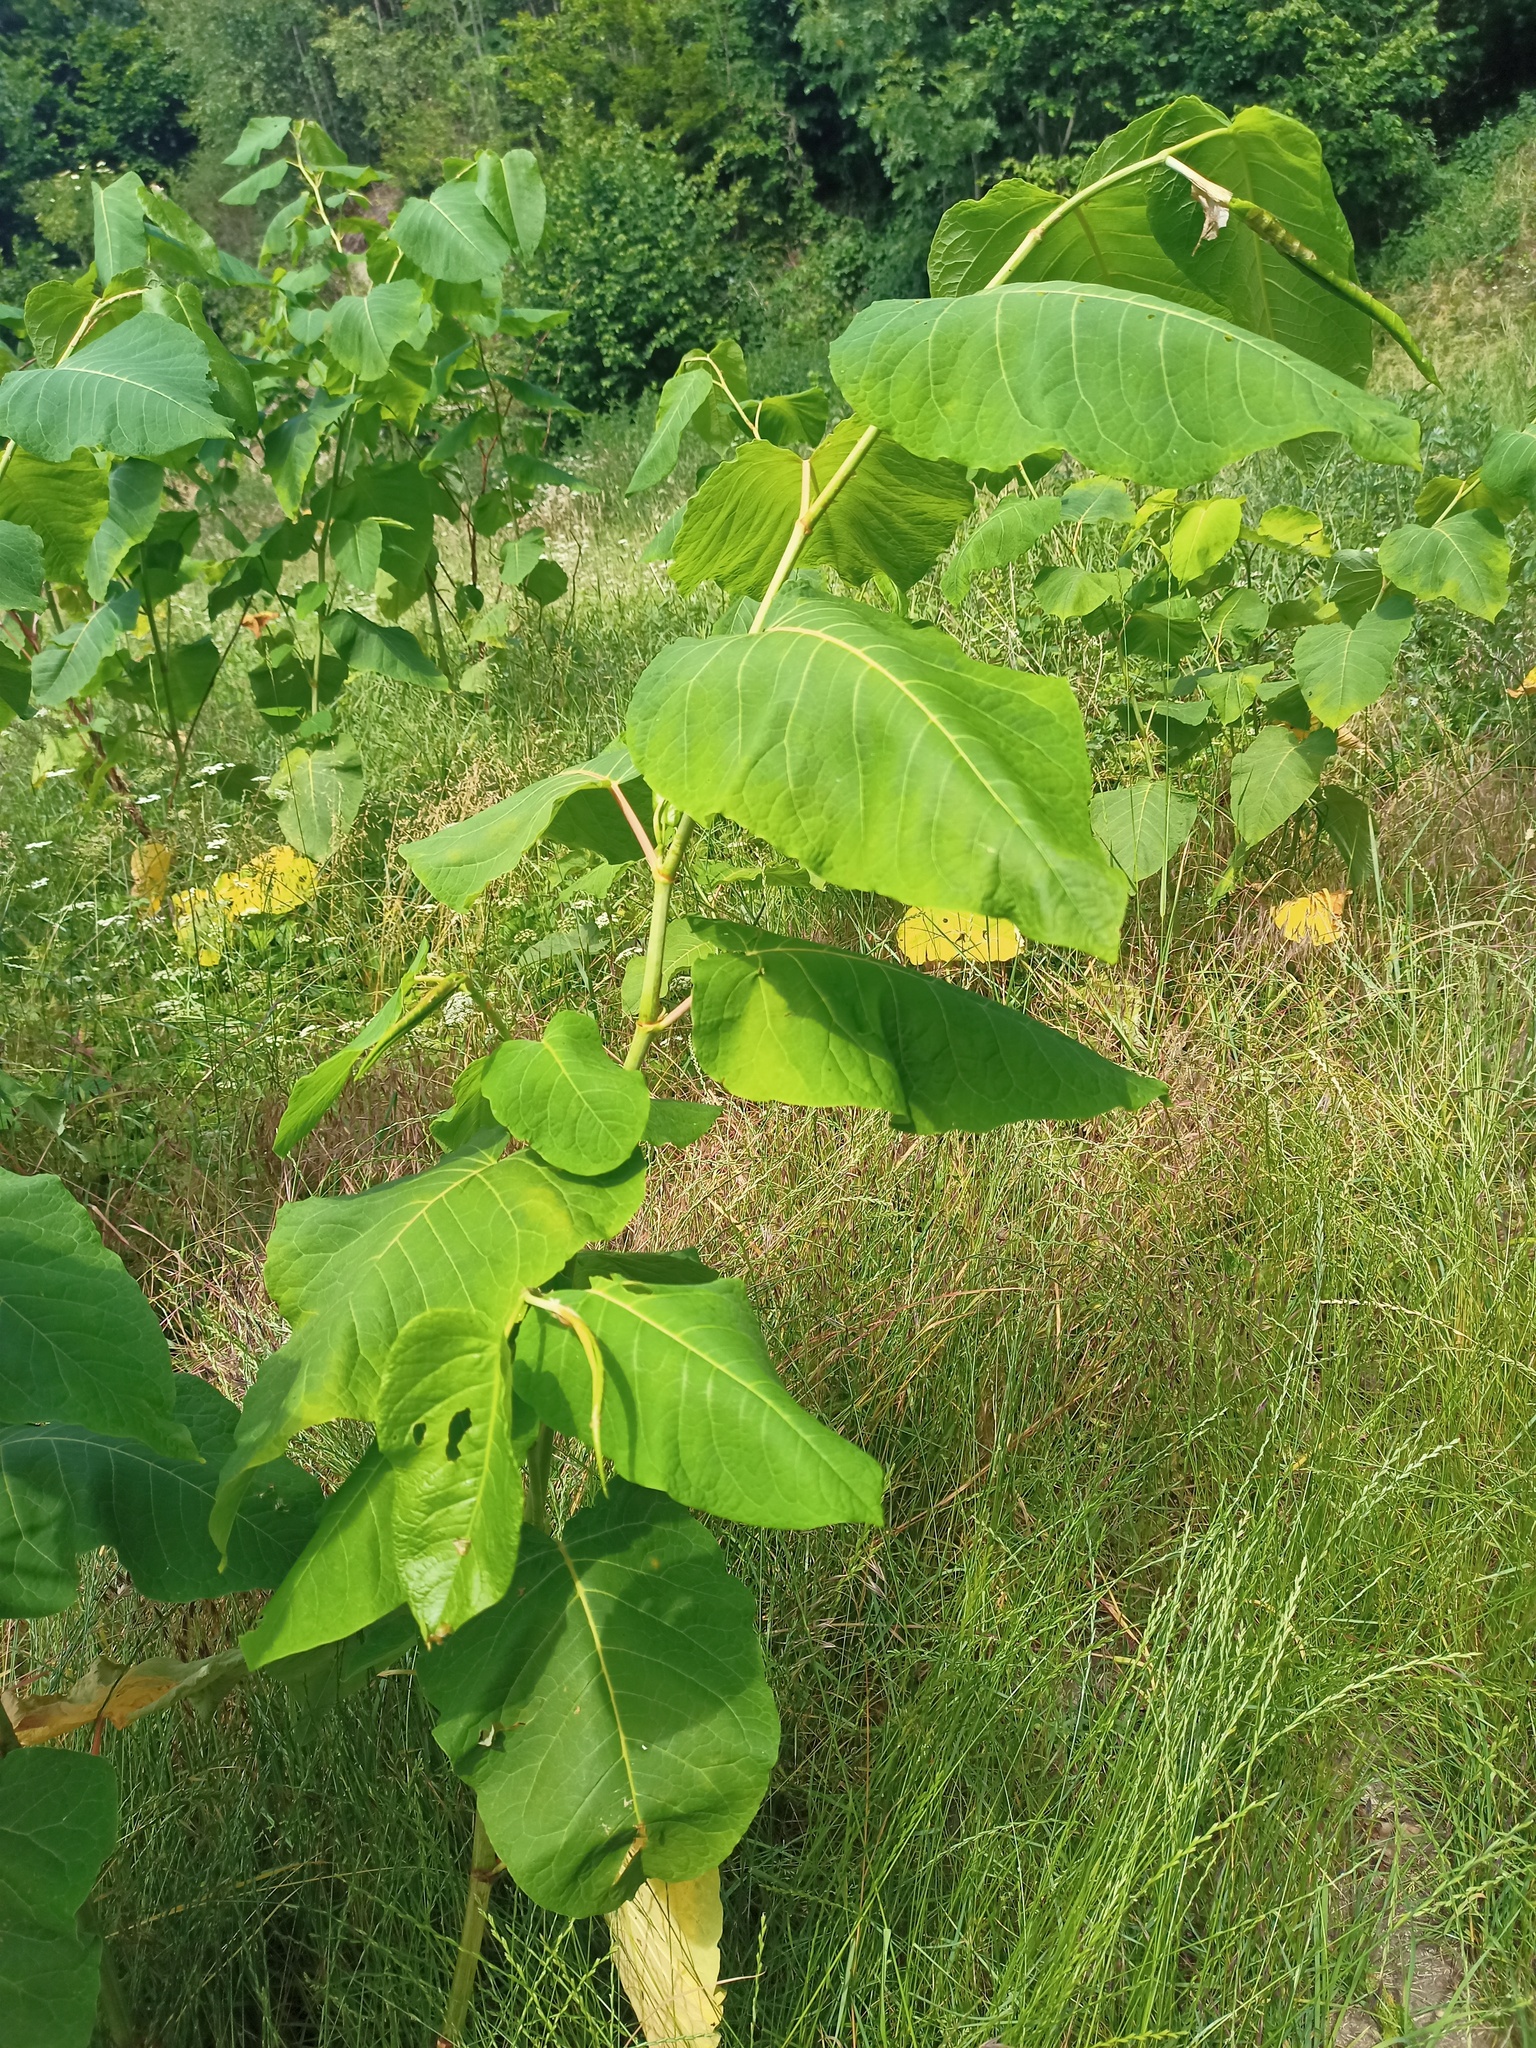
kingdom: Plantae
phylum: Tracheophyta
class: Magnoliopsida
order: Caryophyllales
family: Polygonaceae
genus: Reynoutria
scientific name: Reynoutria sachalinensis
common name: Giant knotweed
